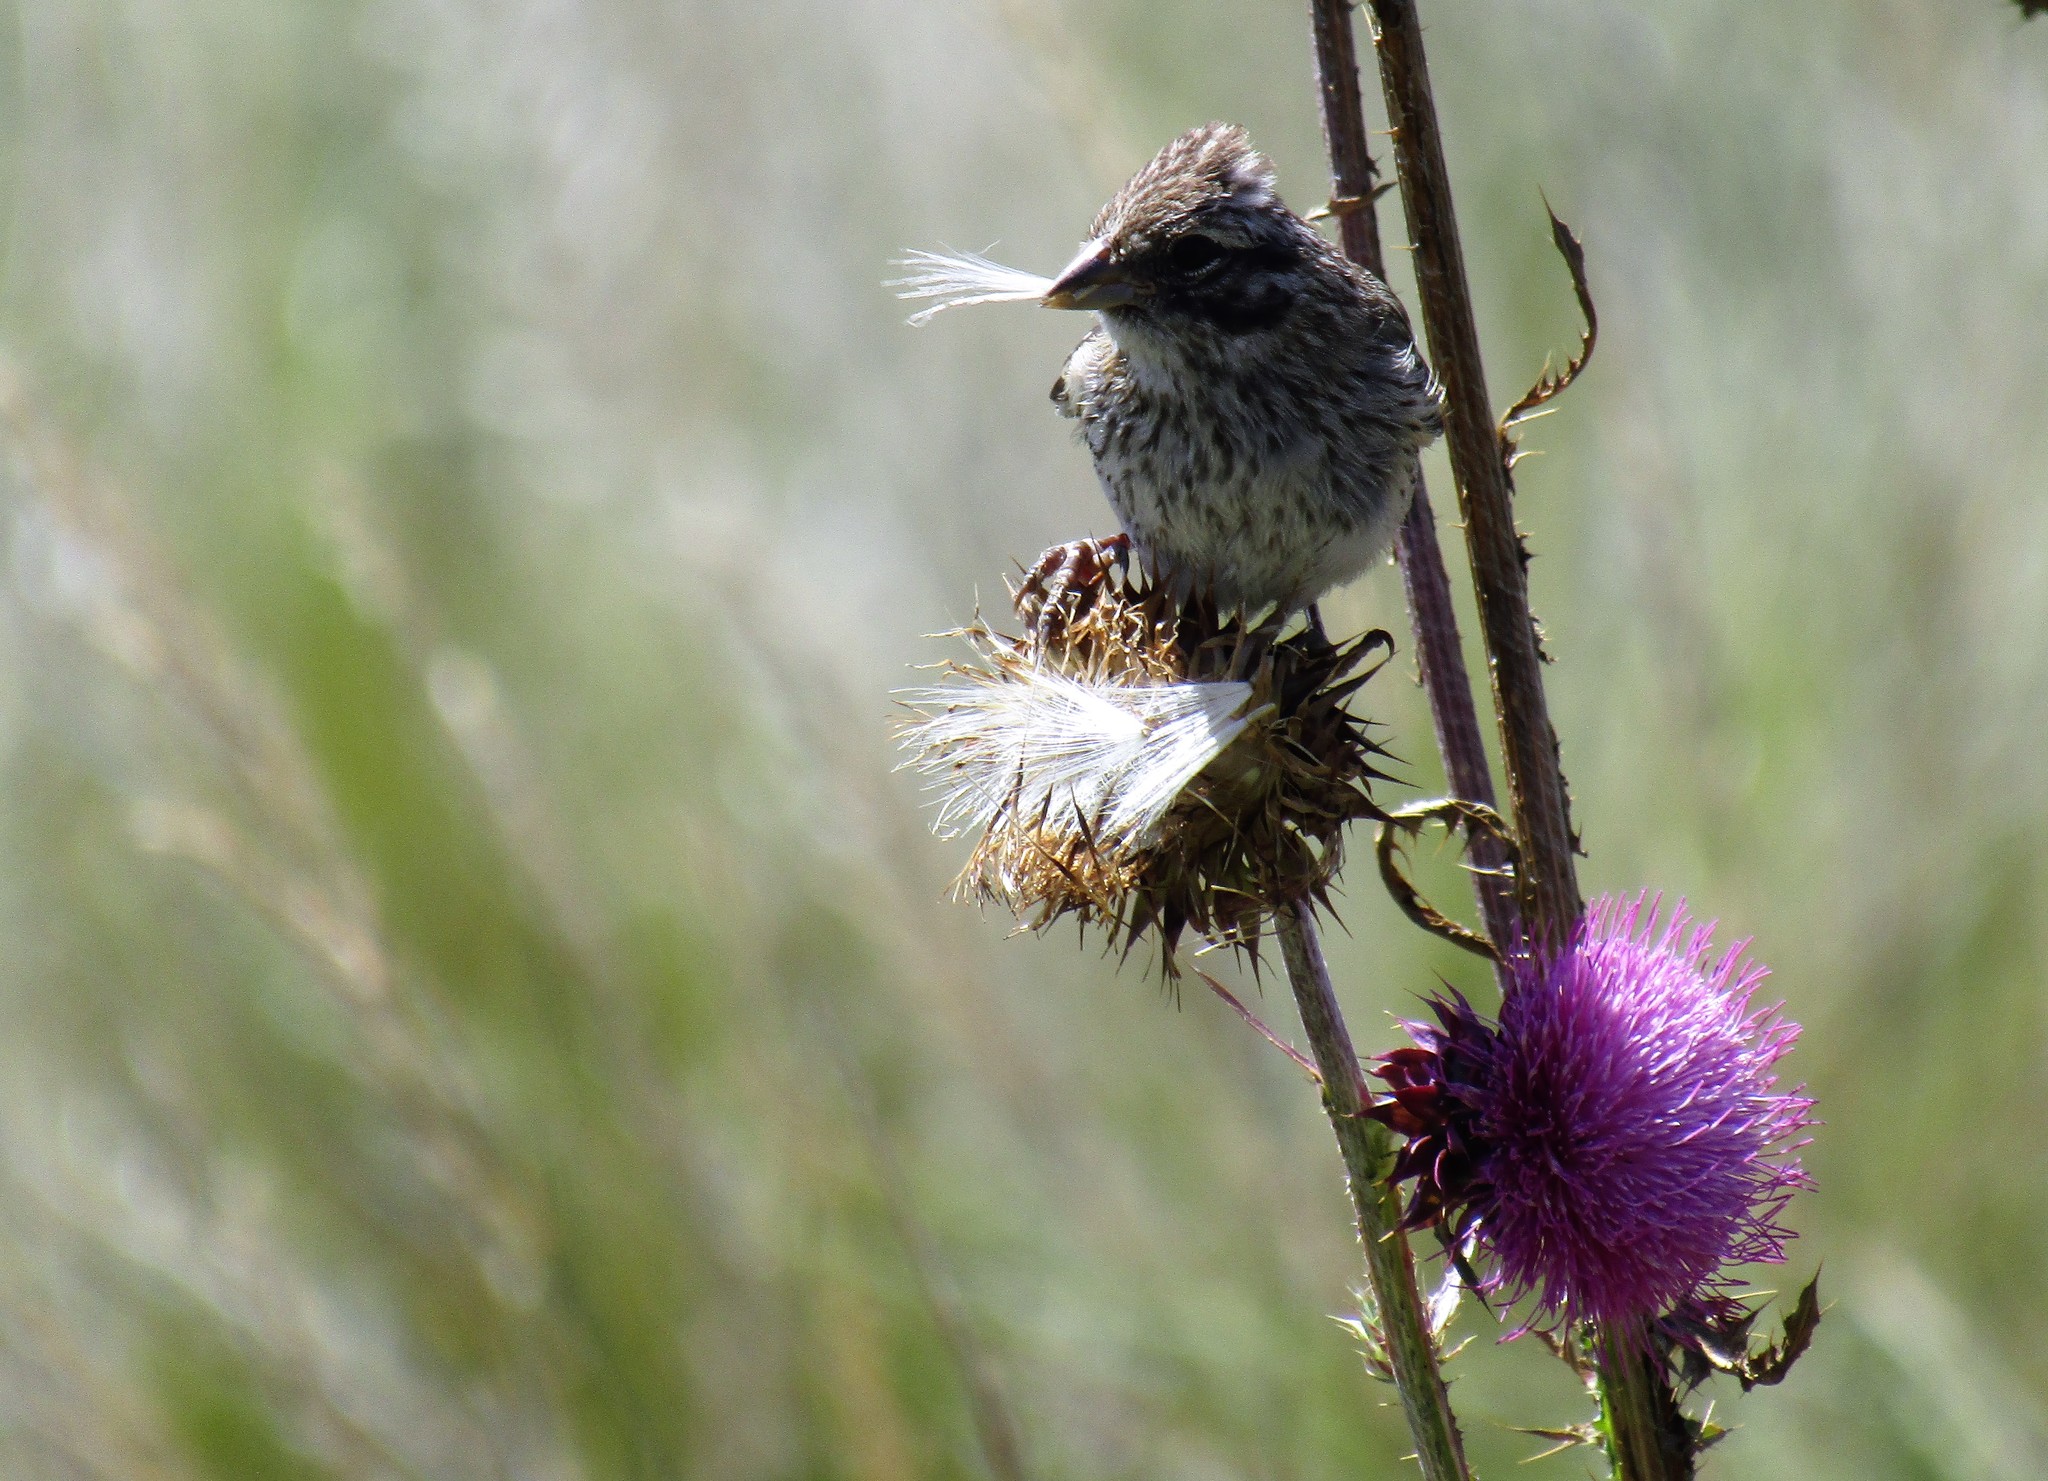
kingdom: Animalia
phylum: Chordata
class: Aves
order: Passeriformes
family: Passerellidae
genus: Zonotrichia
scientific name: Zonotrichia capensis
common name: Rufous-collared sparrow
